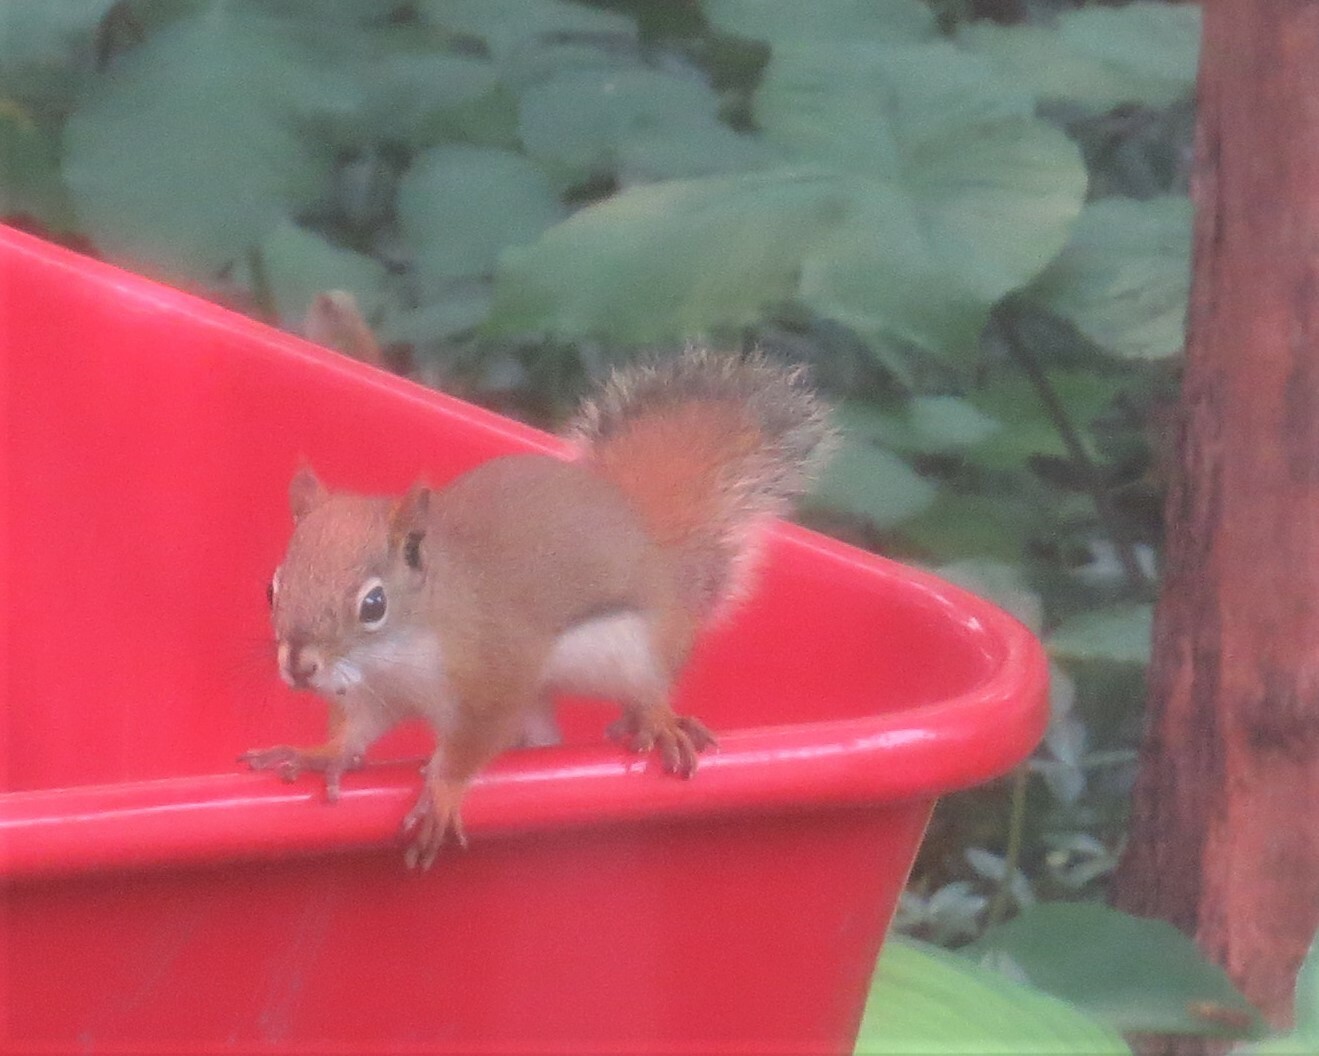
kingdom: Animalia
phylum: Chordata
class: Mammalia
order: Rodentia
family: Sciuridae
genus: Tamiasciurus
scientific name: Tamiasciurus hudsonicus
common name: Red squirrel
